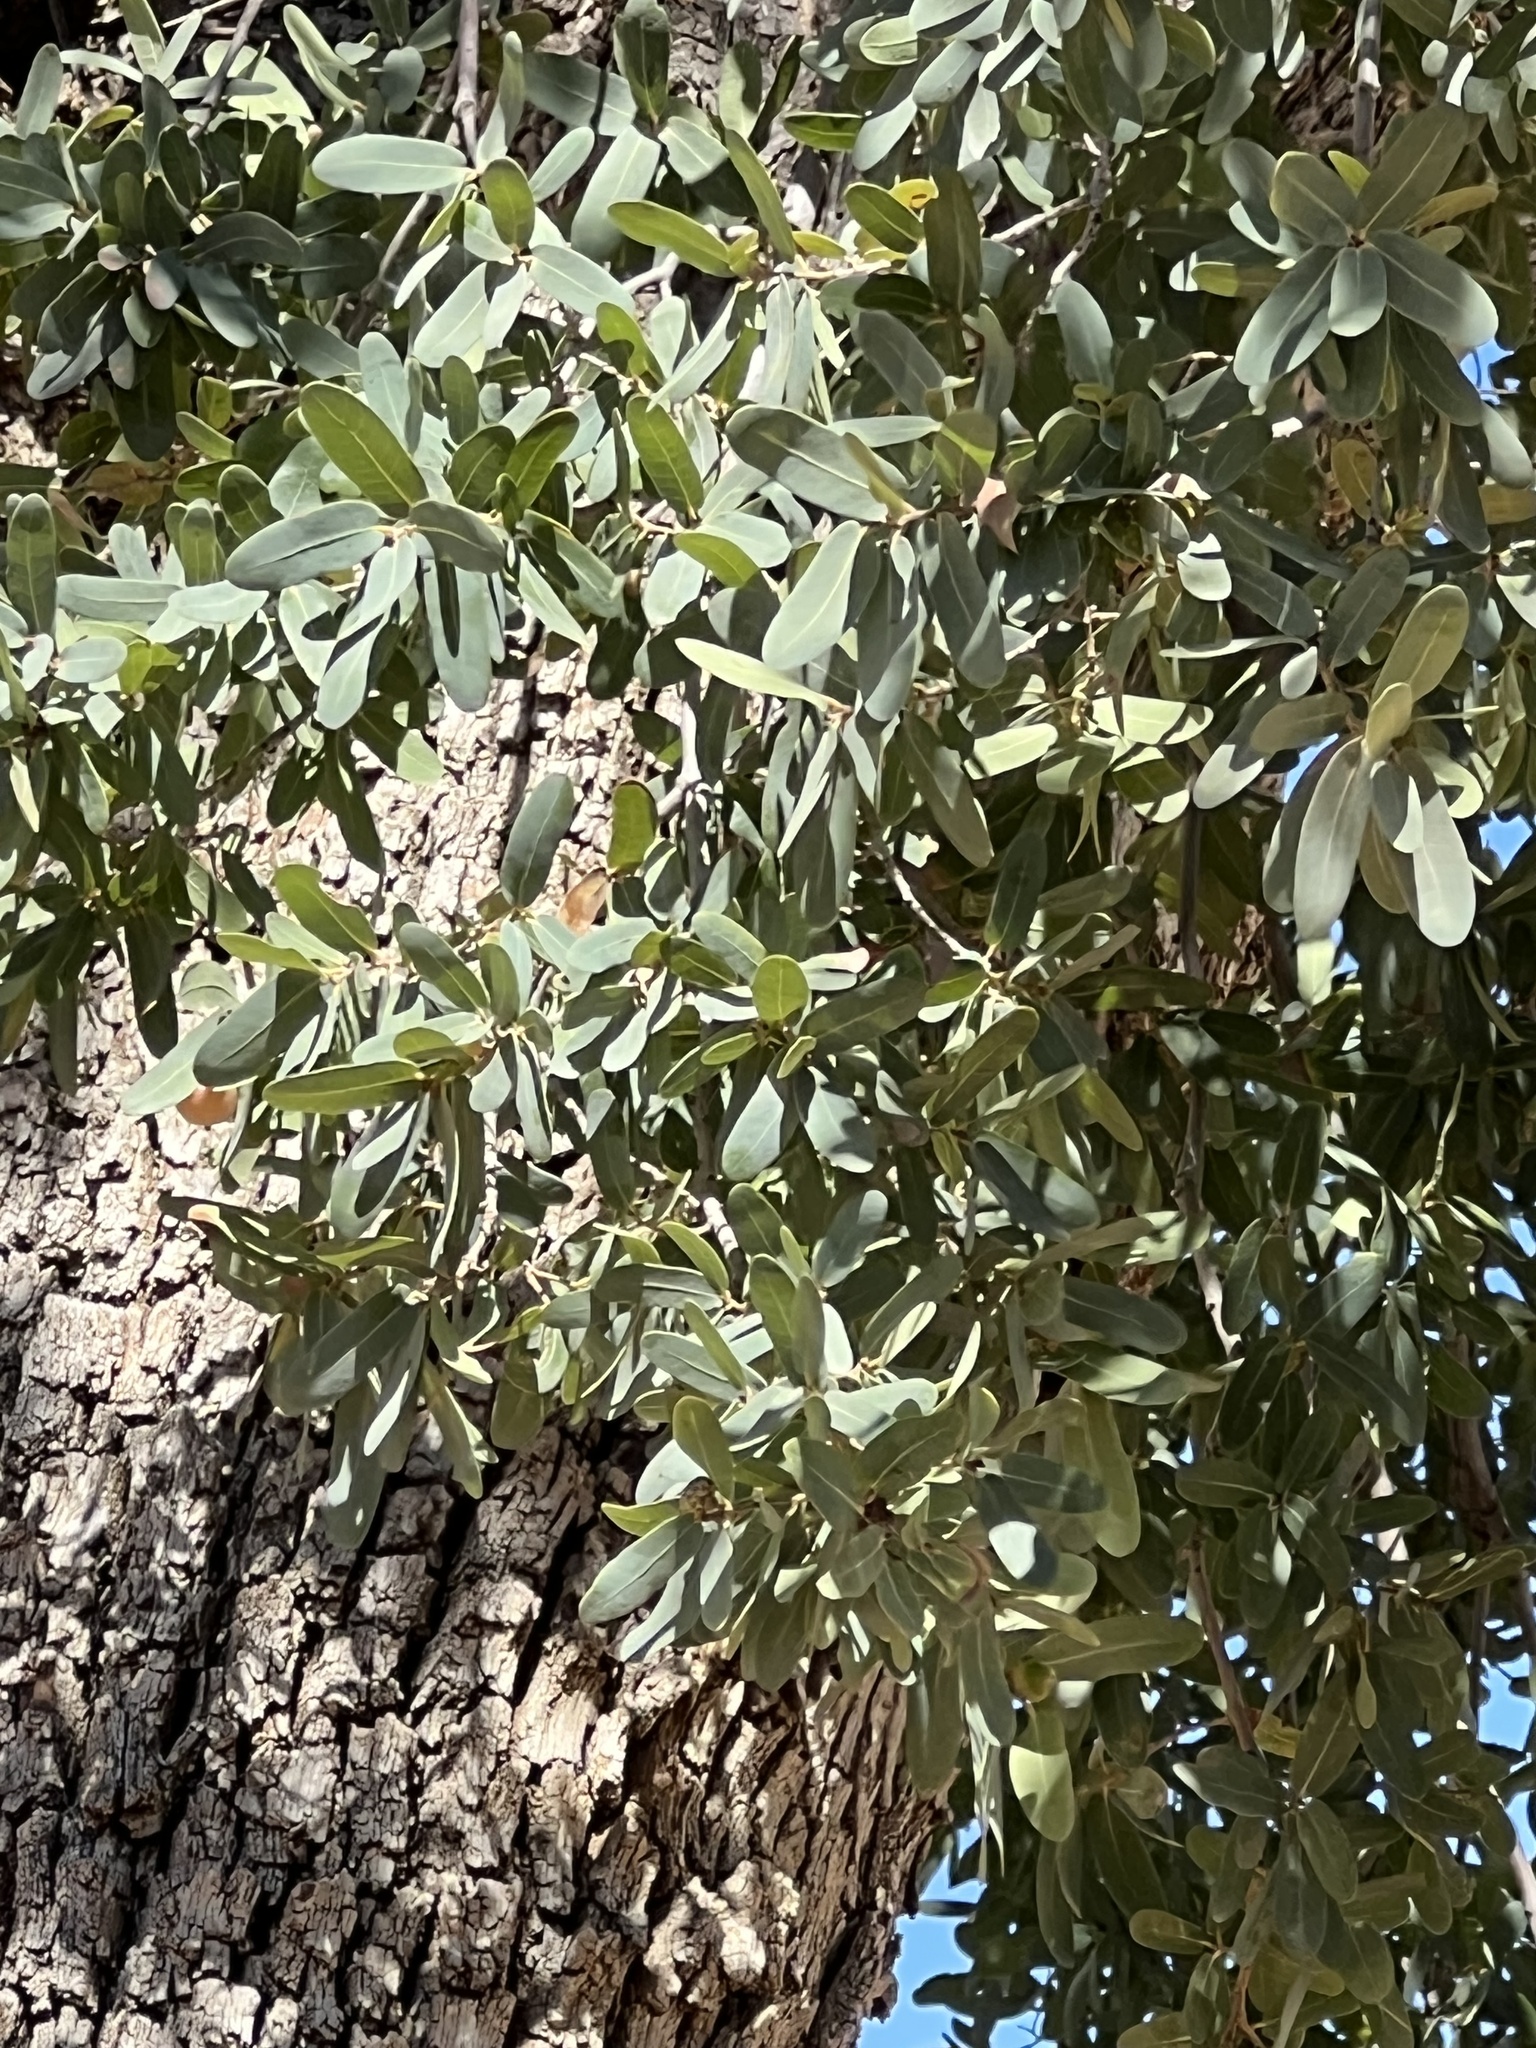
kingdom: Plantae
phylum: Tracheophyta
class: Magnoliopsida
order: Fagales
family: Fagaceae
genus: Quercus
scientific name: Quercus oblongifolia
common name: Mexican blue oak
